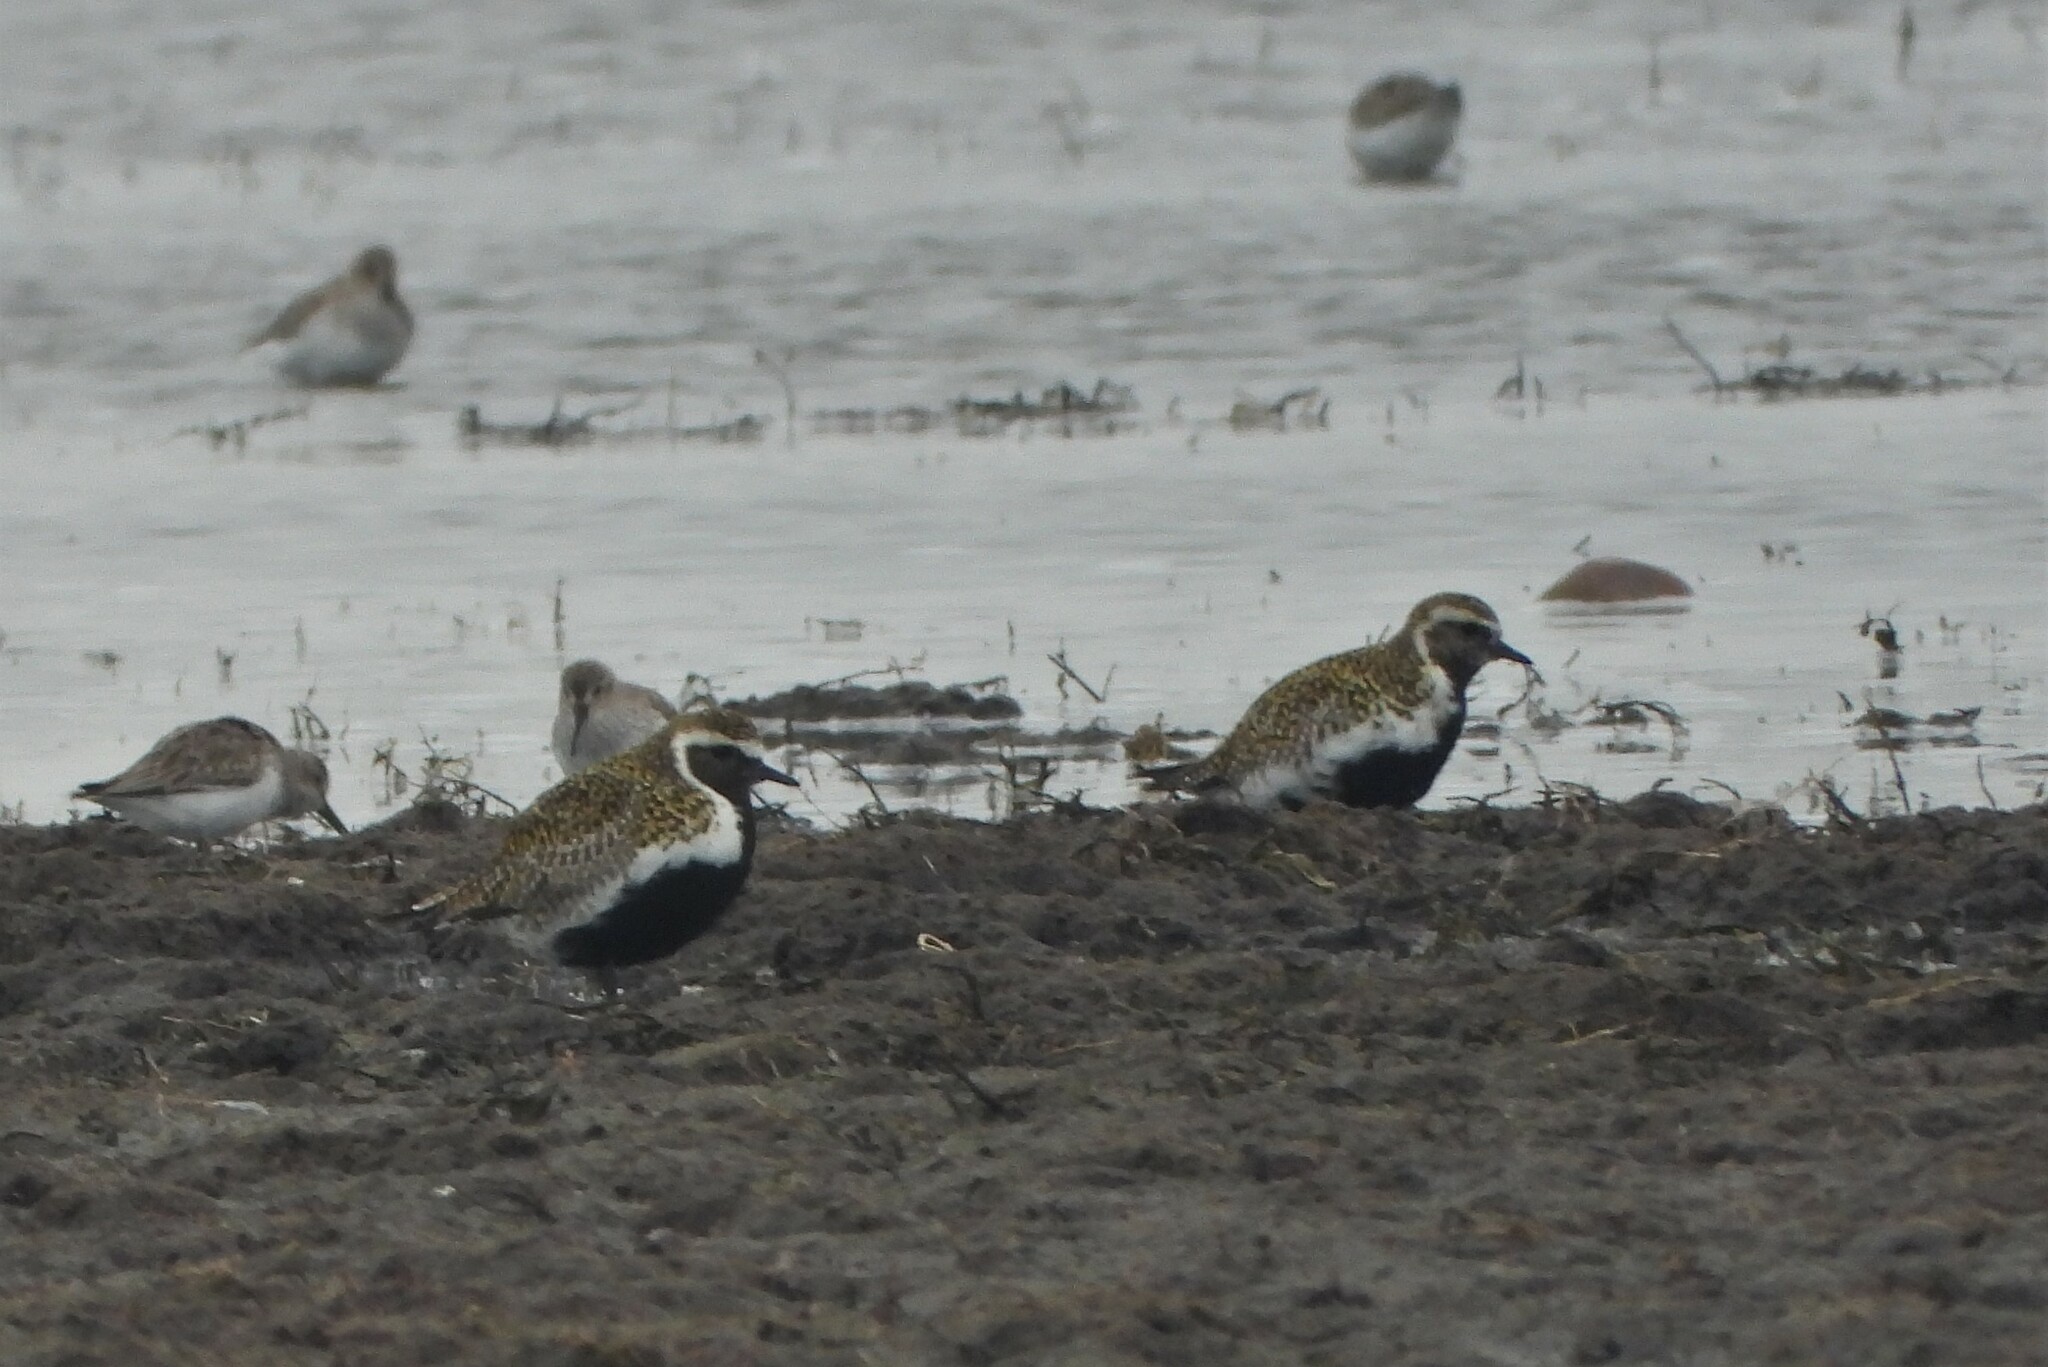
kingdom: Animalia
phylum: Chordata
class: Aves
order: Charadriiformes
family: Charadriidae
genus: Pluvialis
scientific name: Pluvialis apricaria
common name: European golden plover
